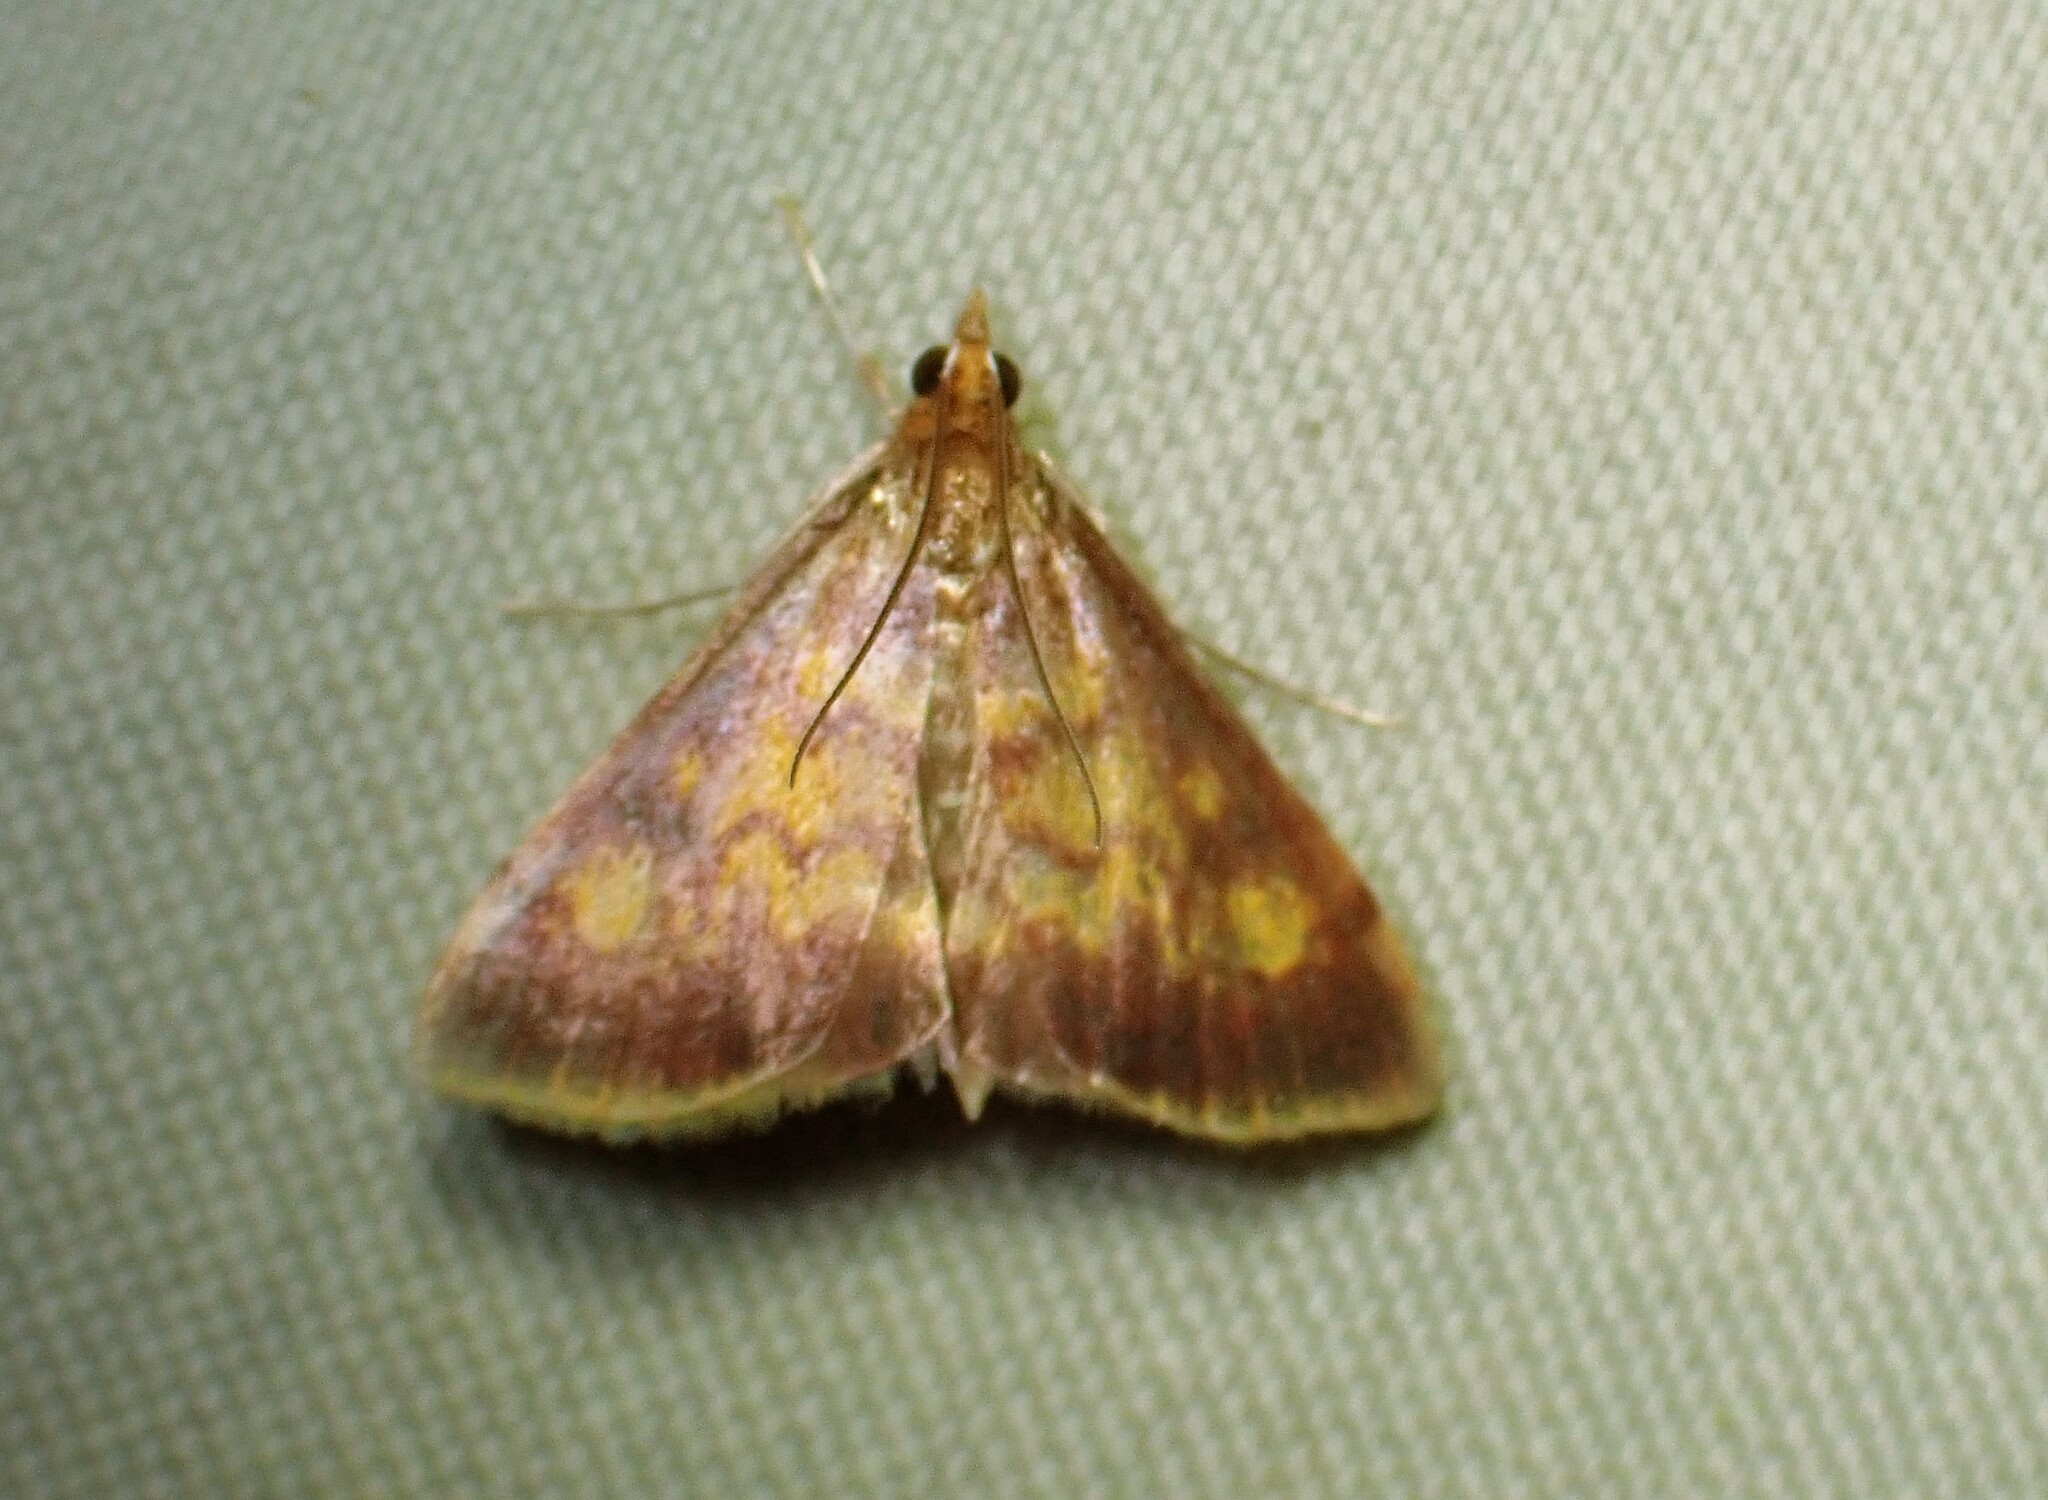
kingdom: Animalia
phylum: Arthropoda
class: Insecta
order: Lepidoptera
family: Crambidae
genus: Pyrausta
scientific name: Pyrausta acrionalis
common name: Mint-loving pyrausta moth
